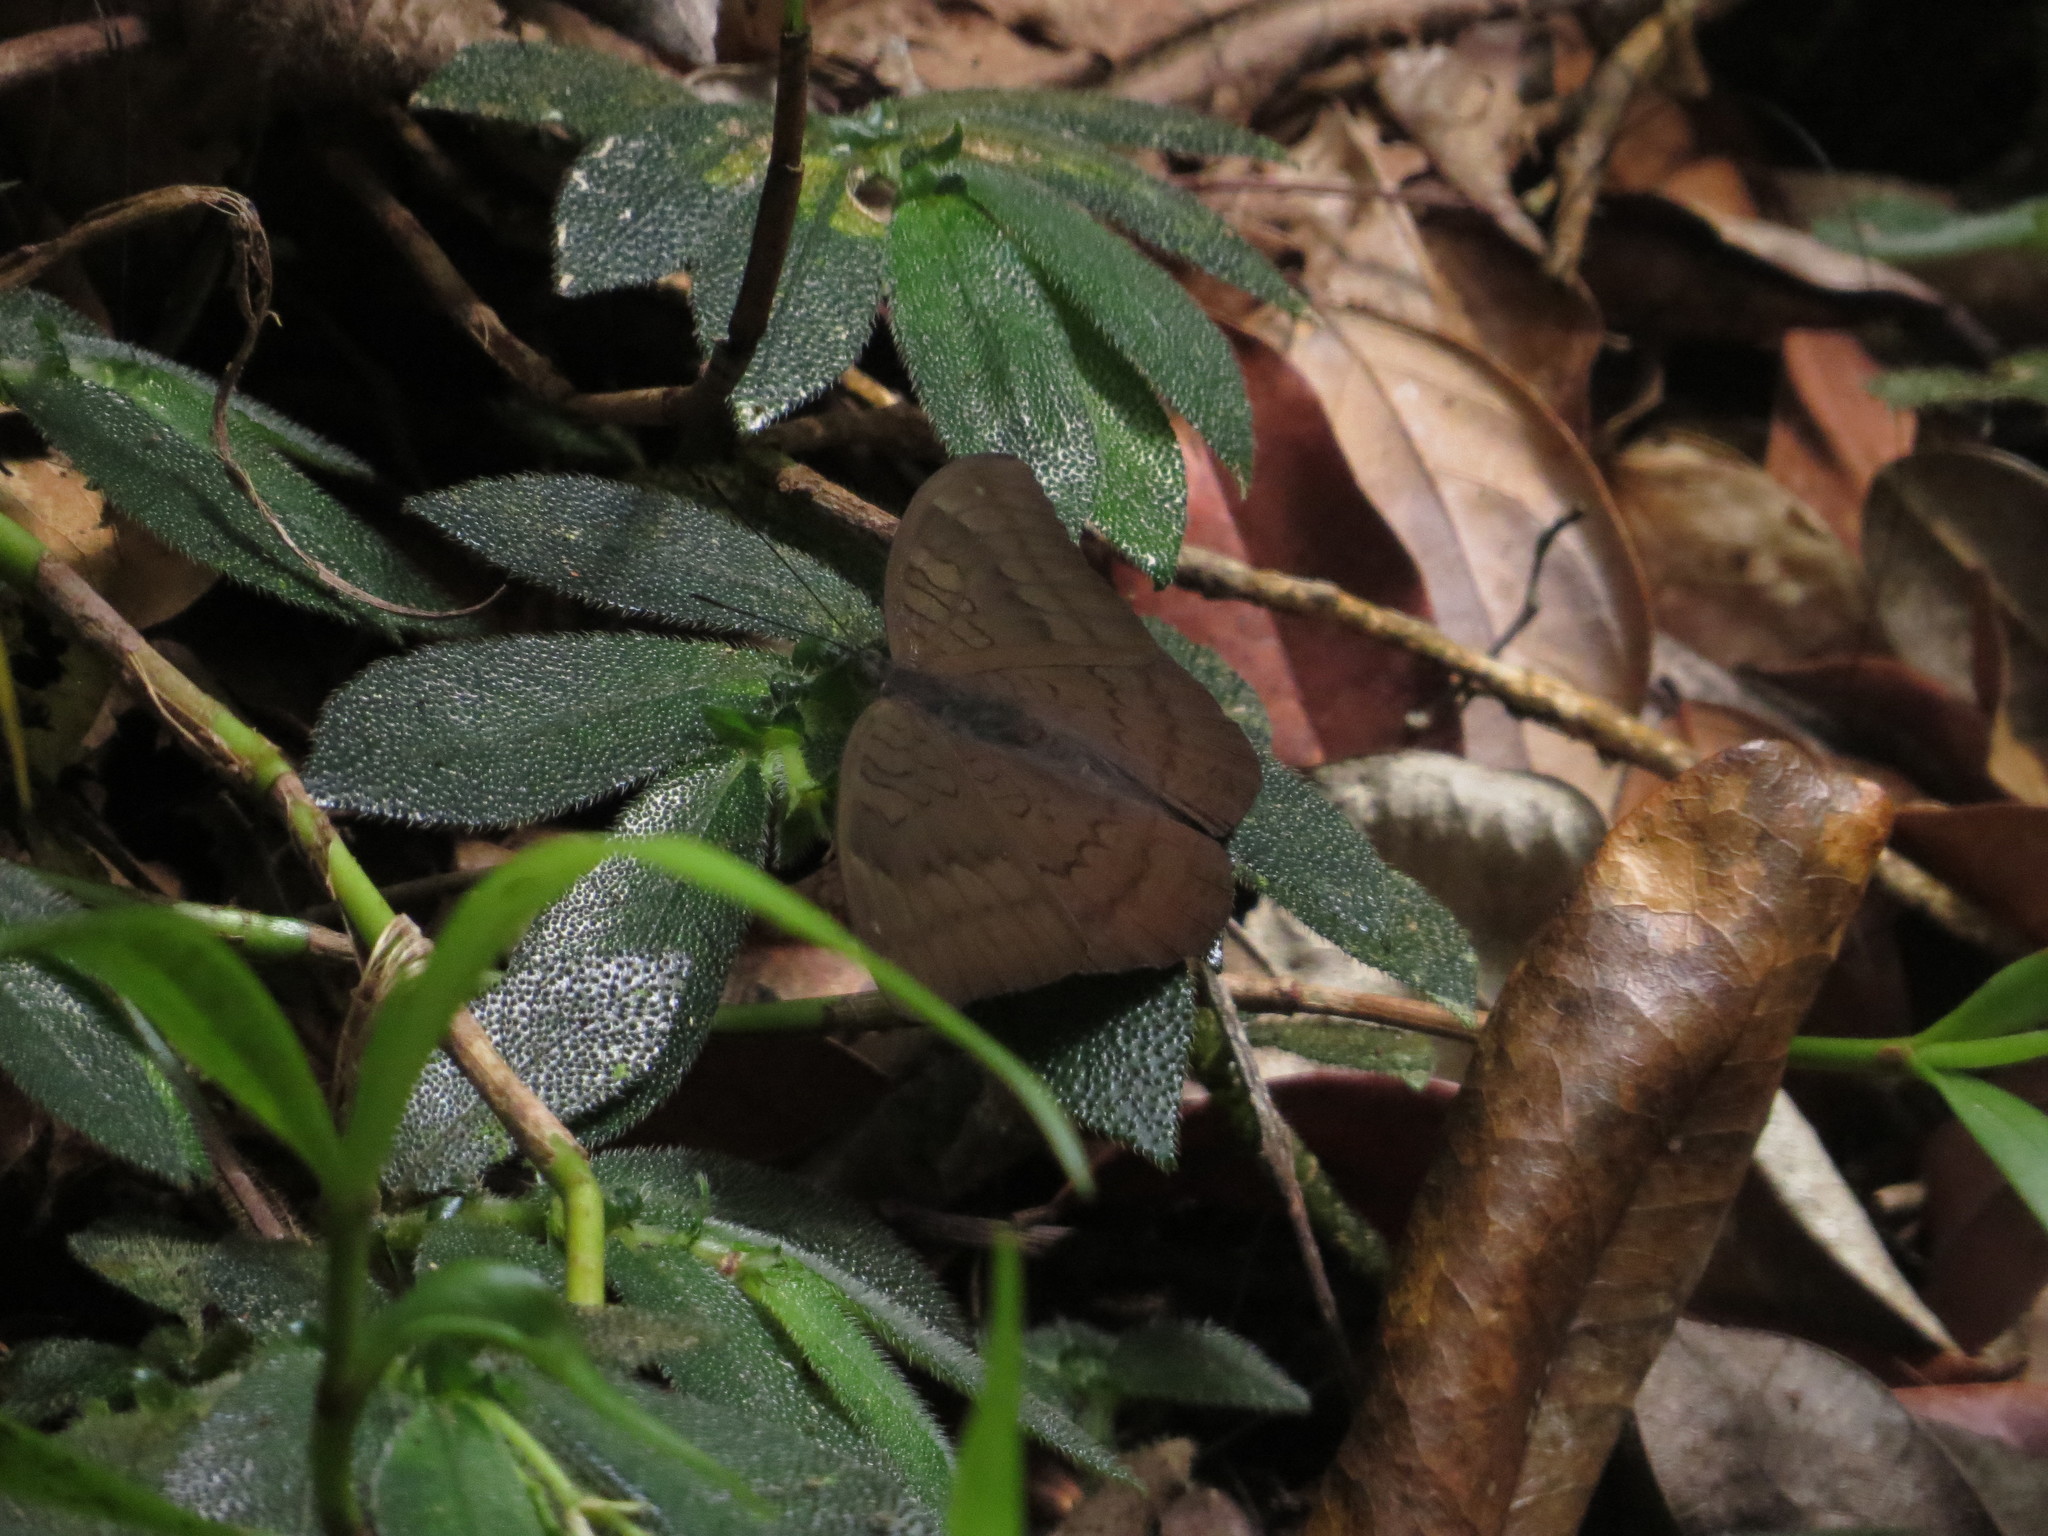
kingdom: Animalia
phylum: Arthropoda
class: Insecta
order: Lepidoptera
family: Nymphalidae
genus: Tanaecia
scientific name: Tanaecia julii
